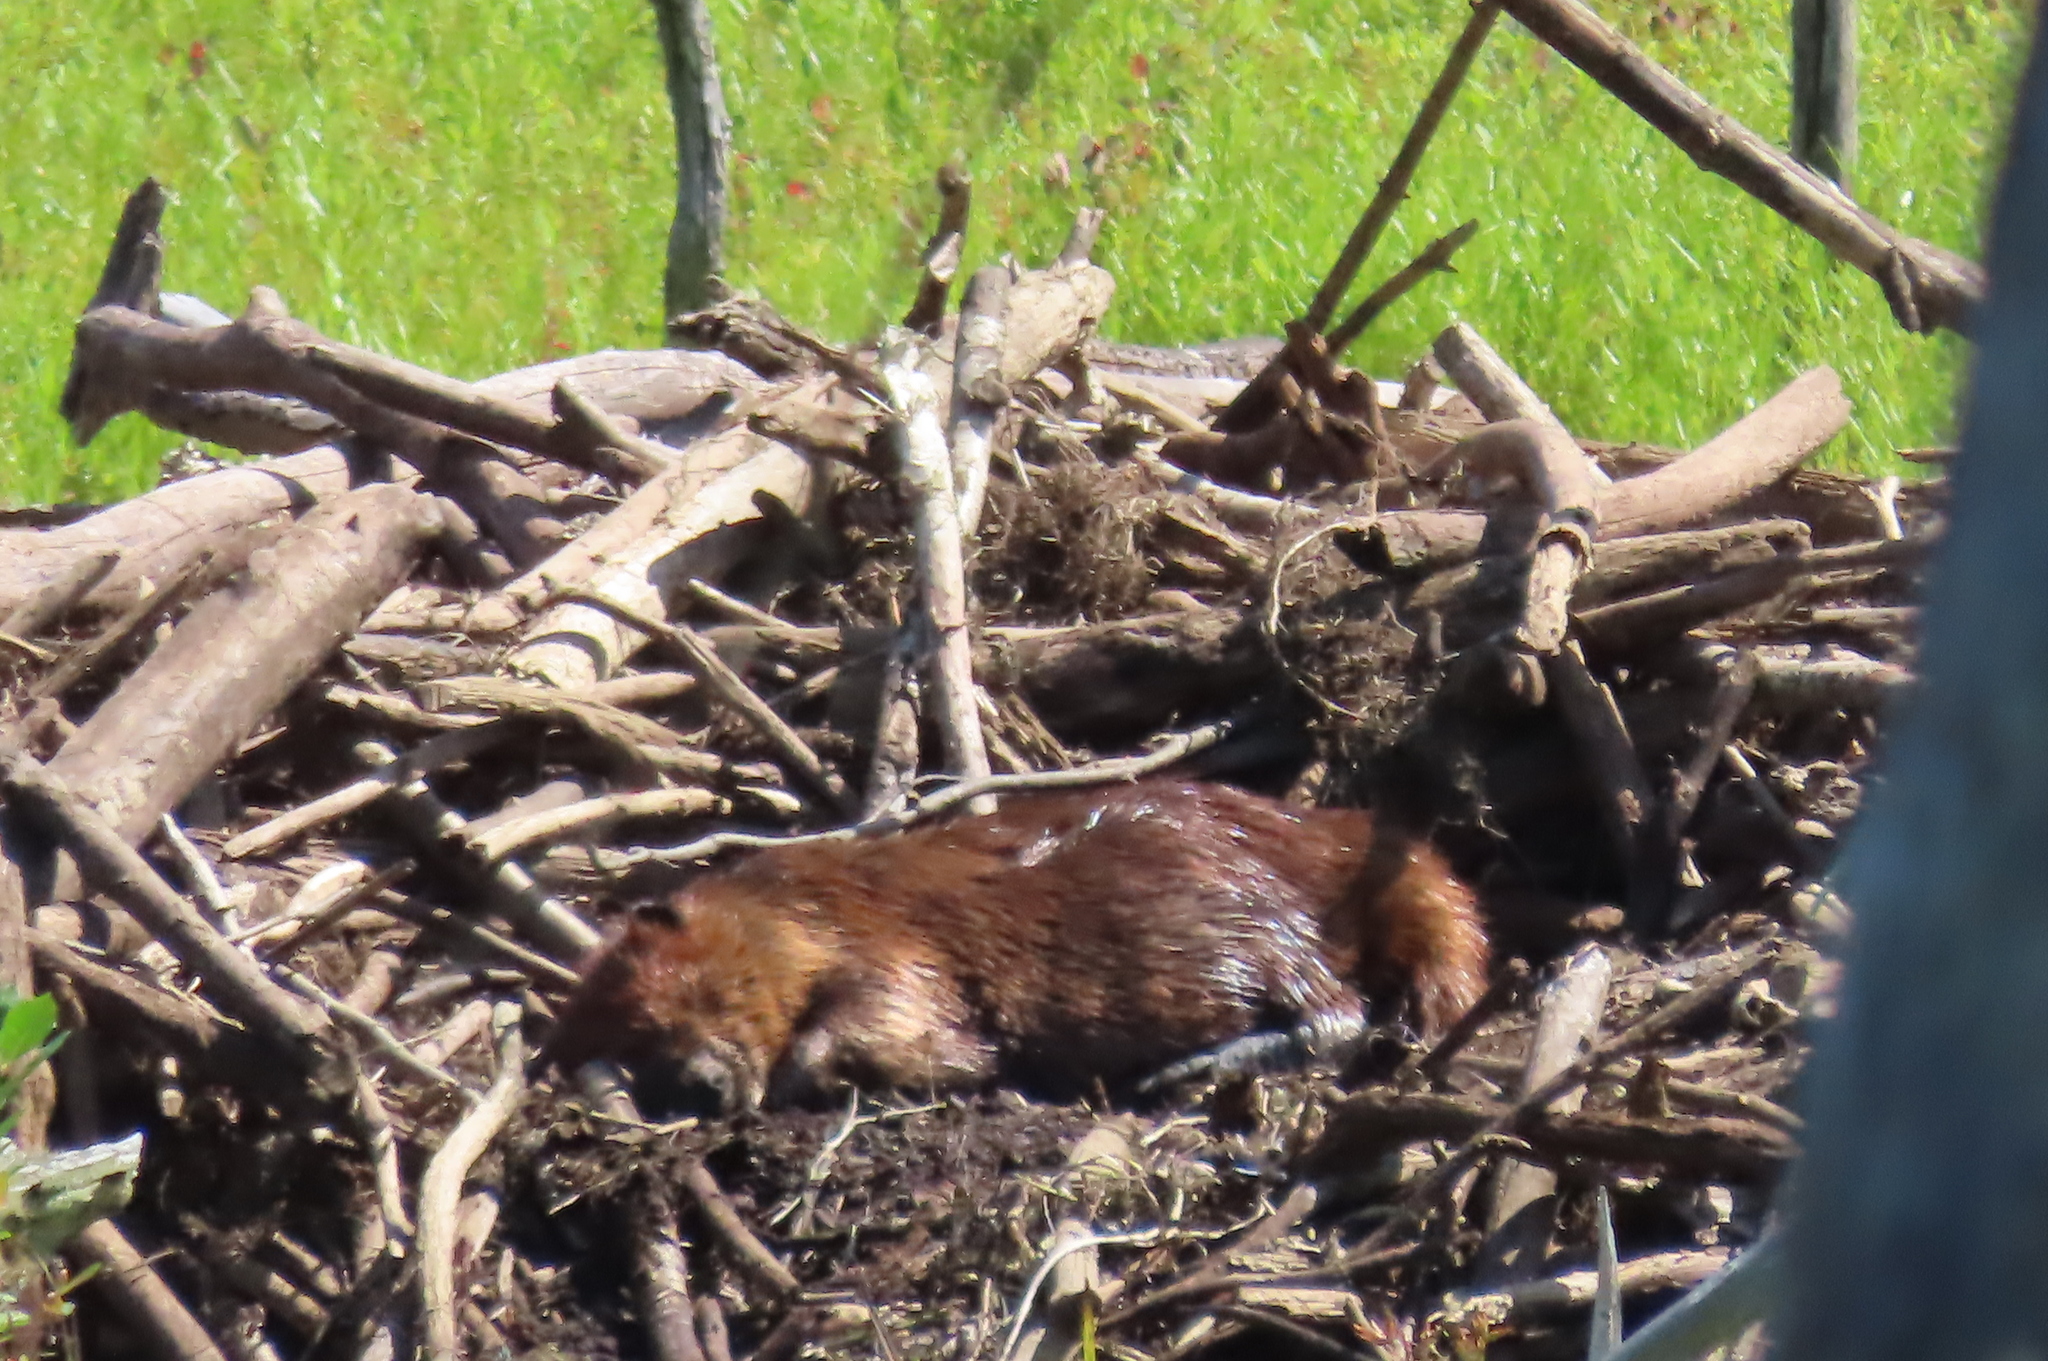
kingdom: Animalia
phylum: Chordata
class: Mammalia
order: Rodentia
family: Castoridae
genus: Castor
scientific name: Castor canadensis
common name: American beaver
